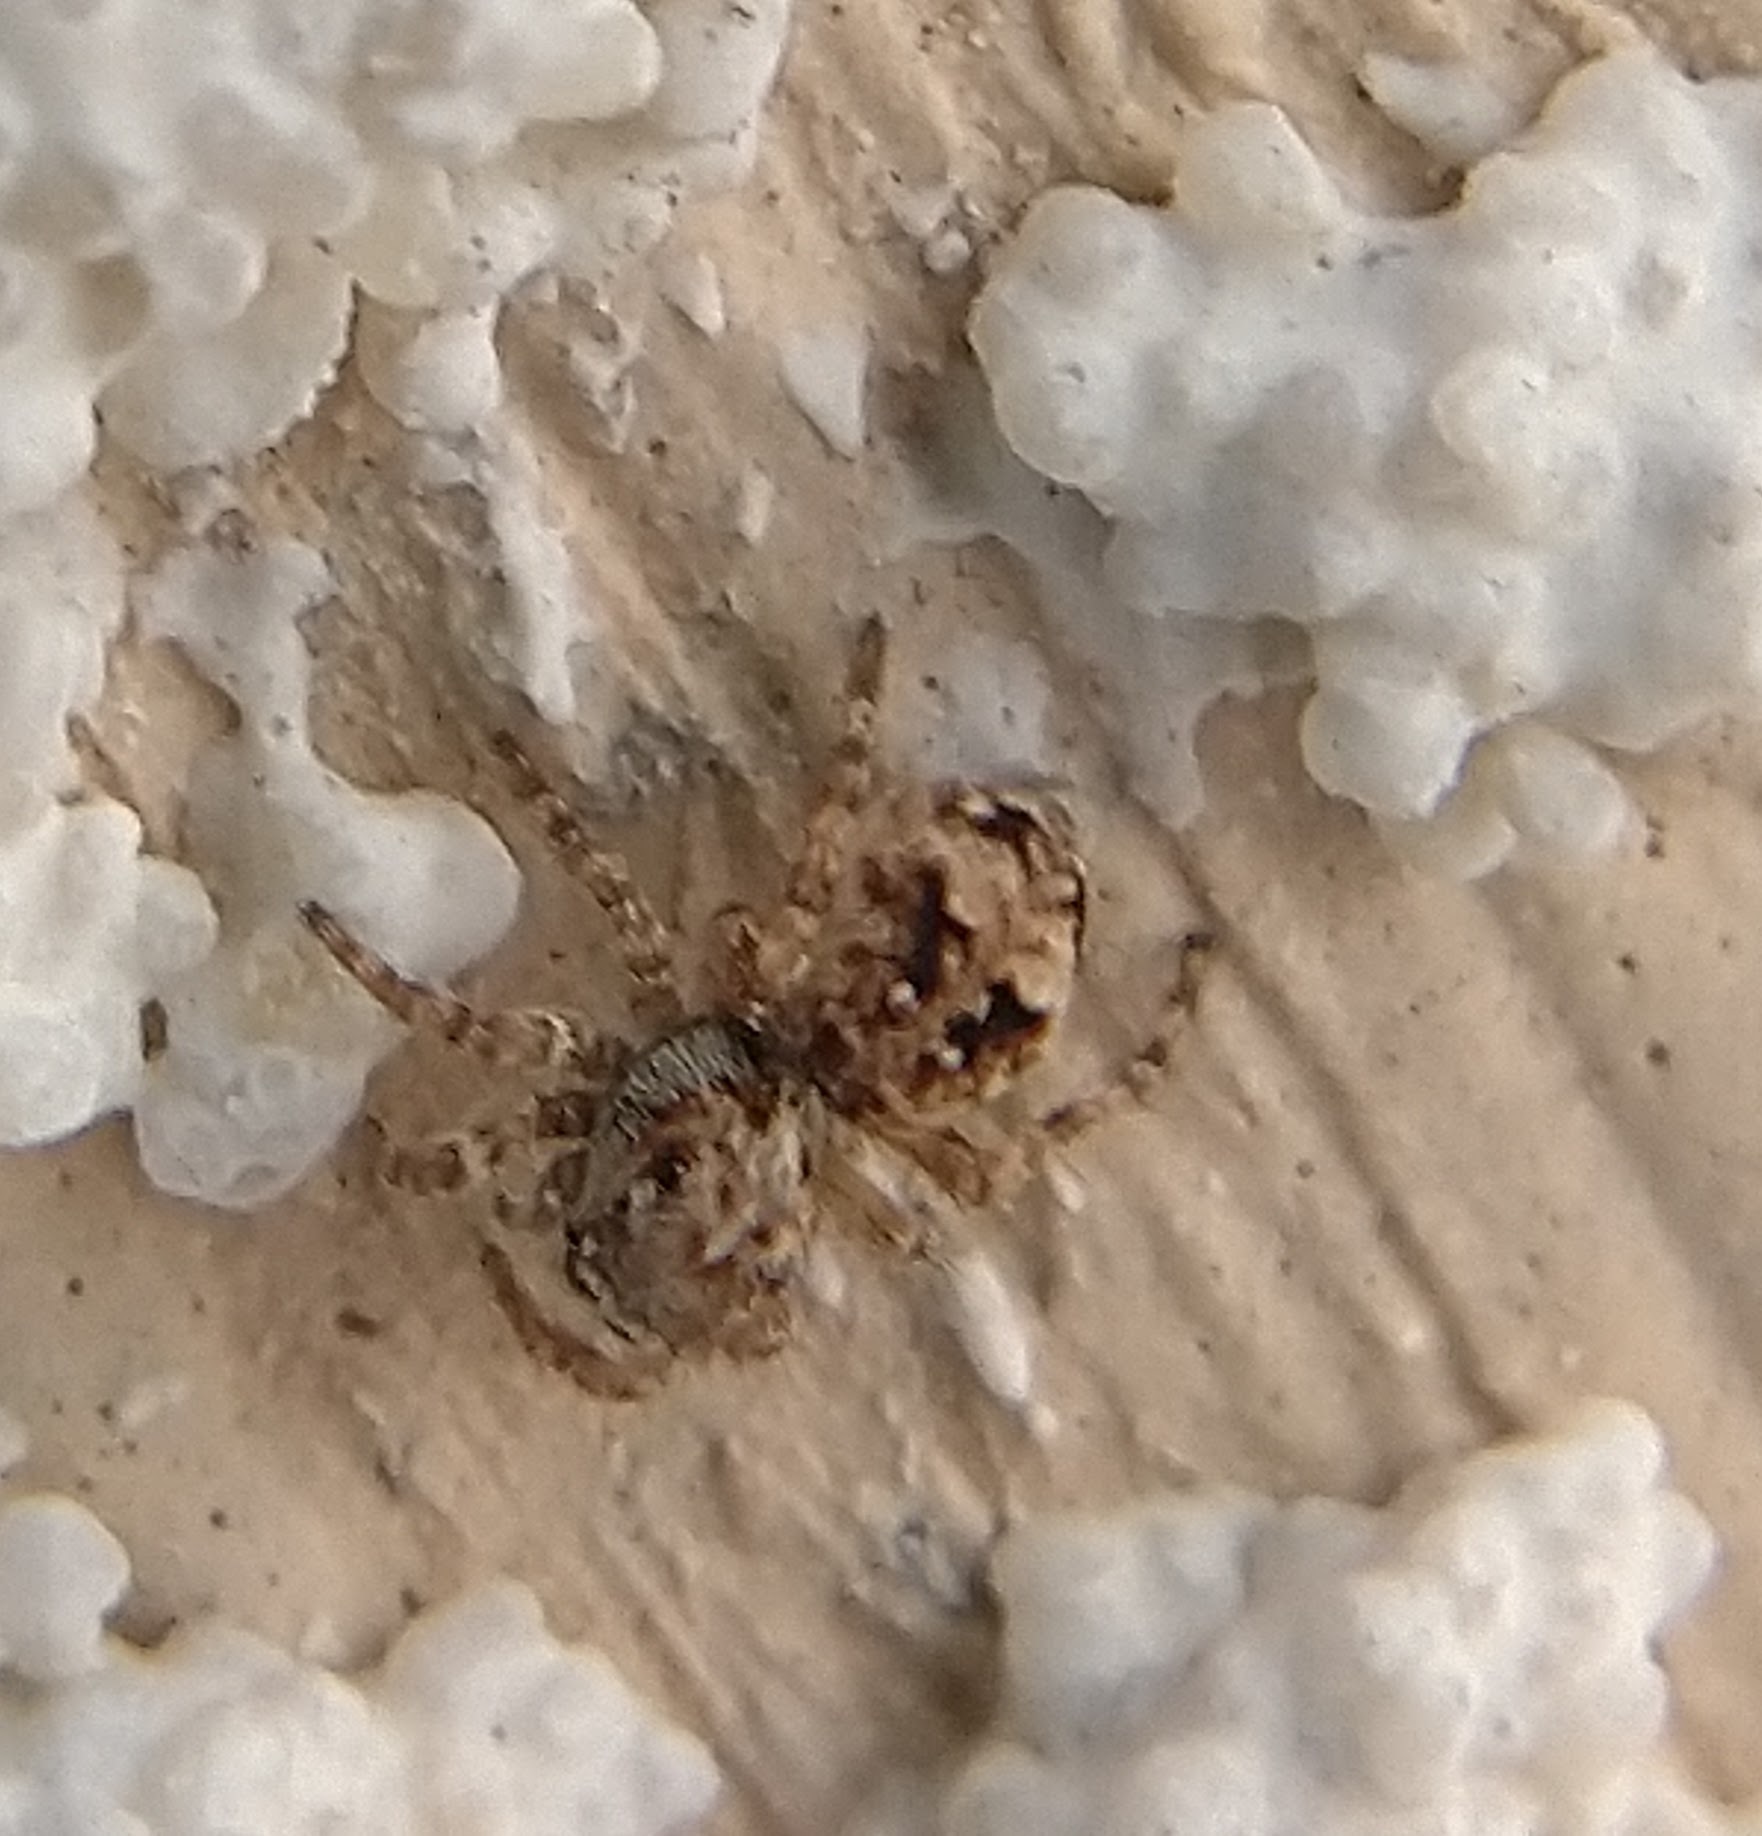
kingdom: Animalia
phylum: Arthropoda
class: Arachnida
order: Araneae
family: Salticidae
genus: Attulus
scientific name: Attulus fasciger
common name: Asiatic wall jumping spider
